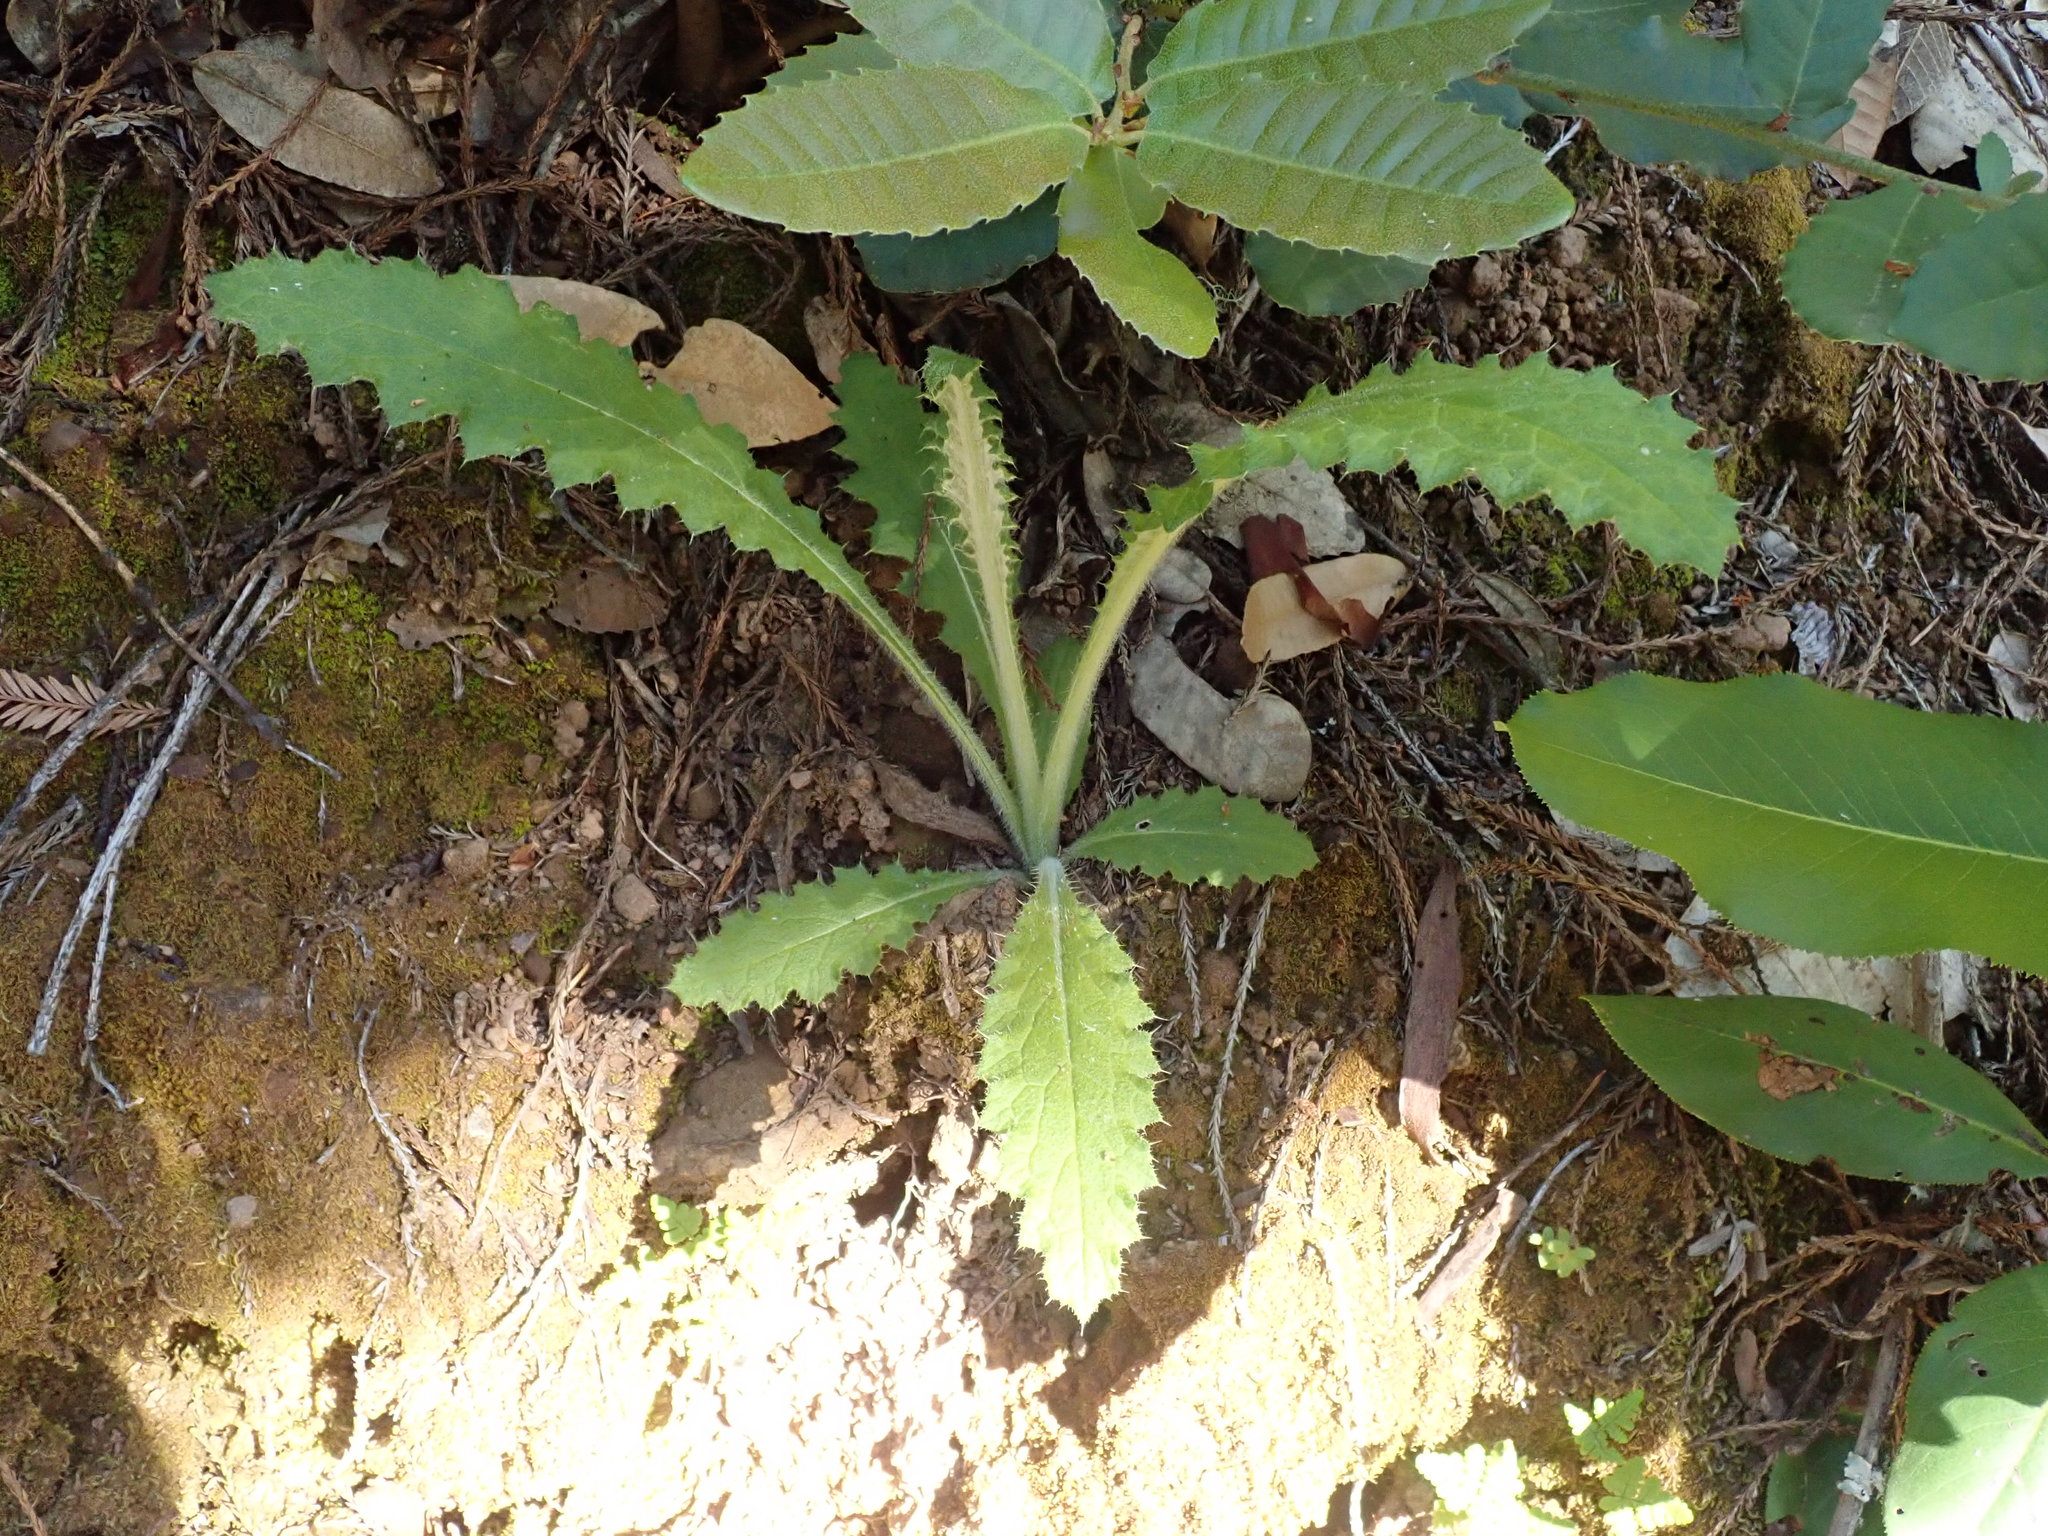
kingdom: Plantae
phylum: Tracheophyta
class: Magnoliopsida
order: Asterales
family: Asteraceae
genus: Cirsium
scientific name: Cirsium brevistylum
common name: Indian thistle
